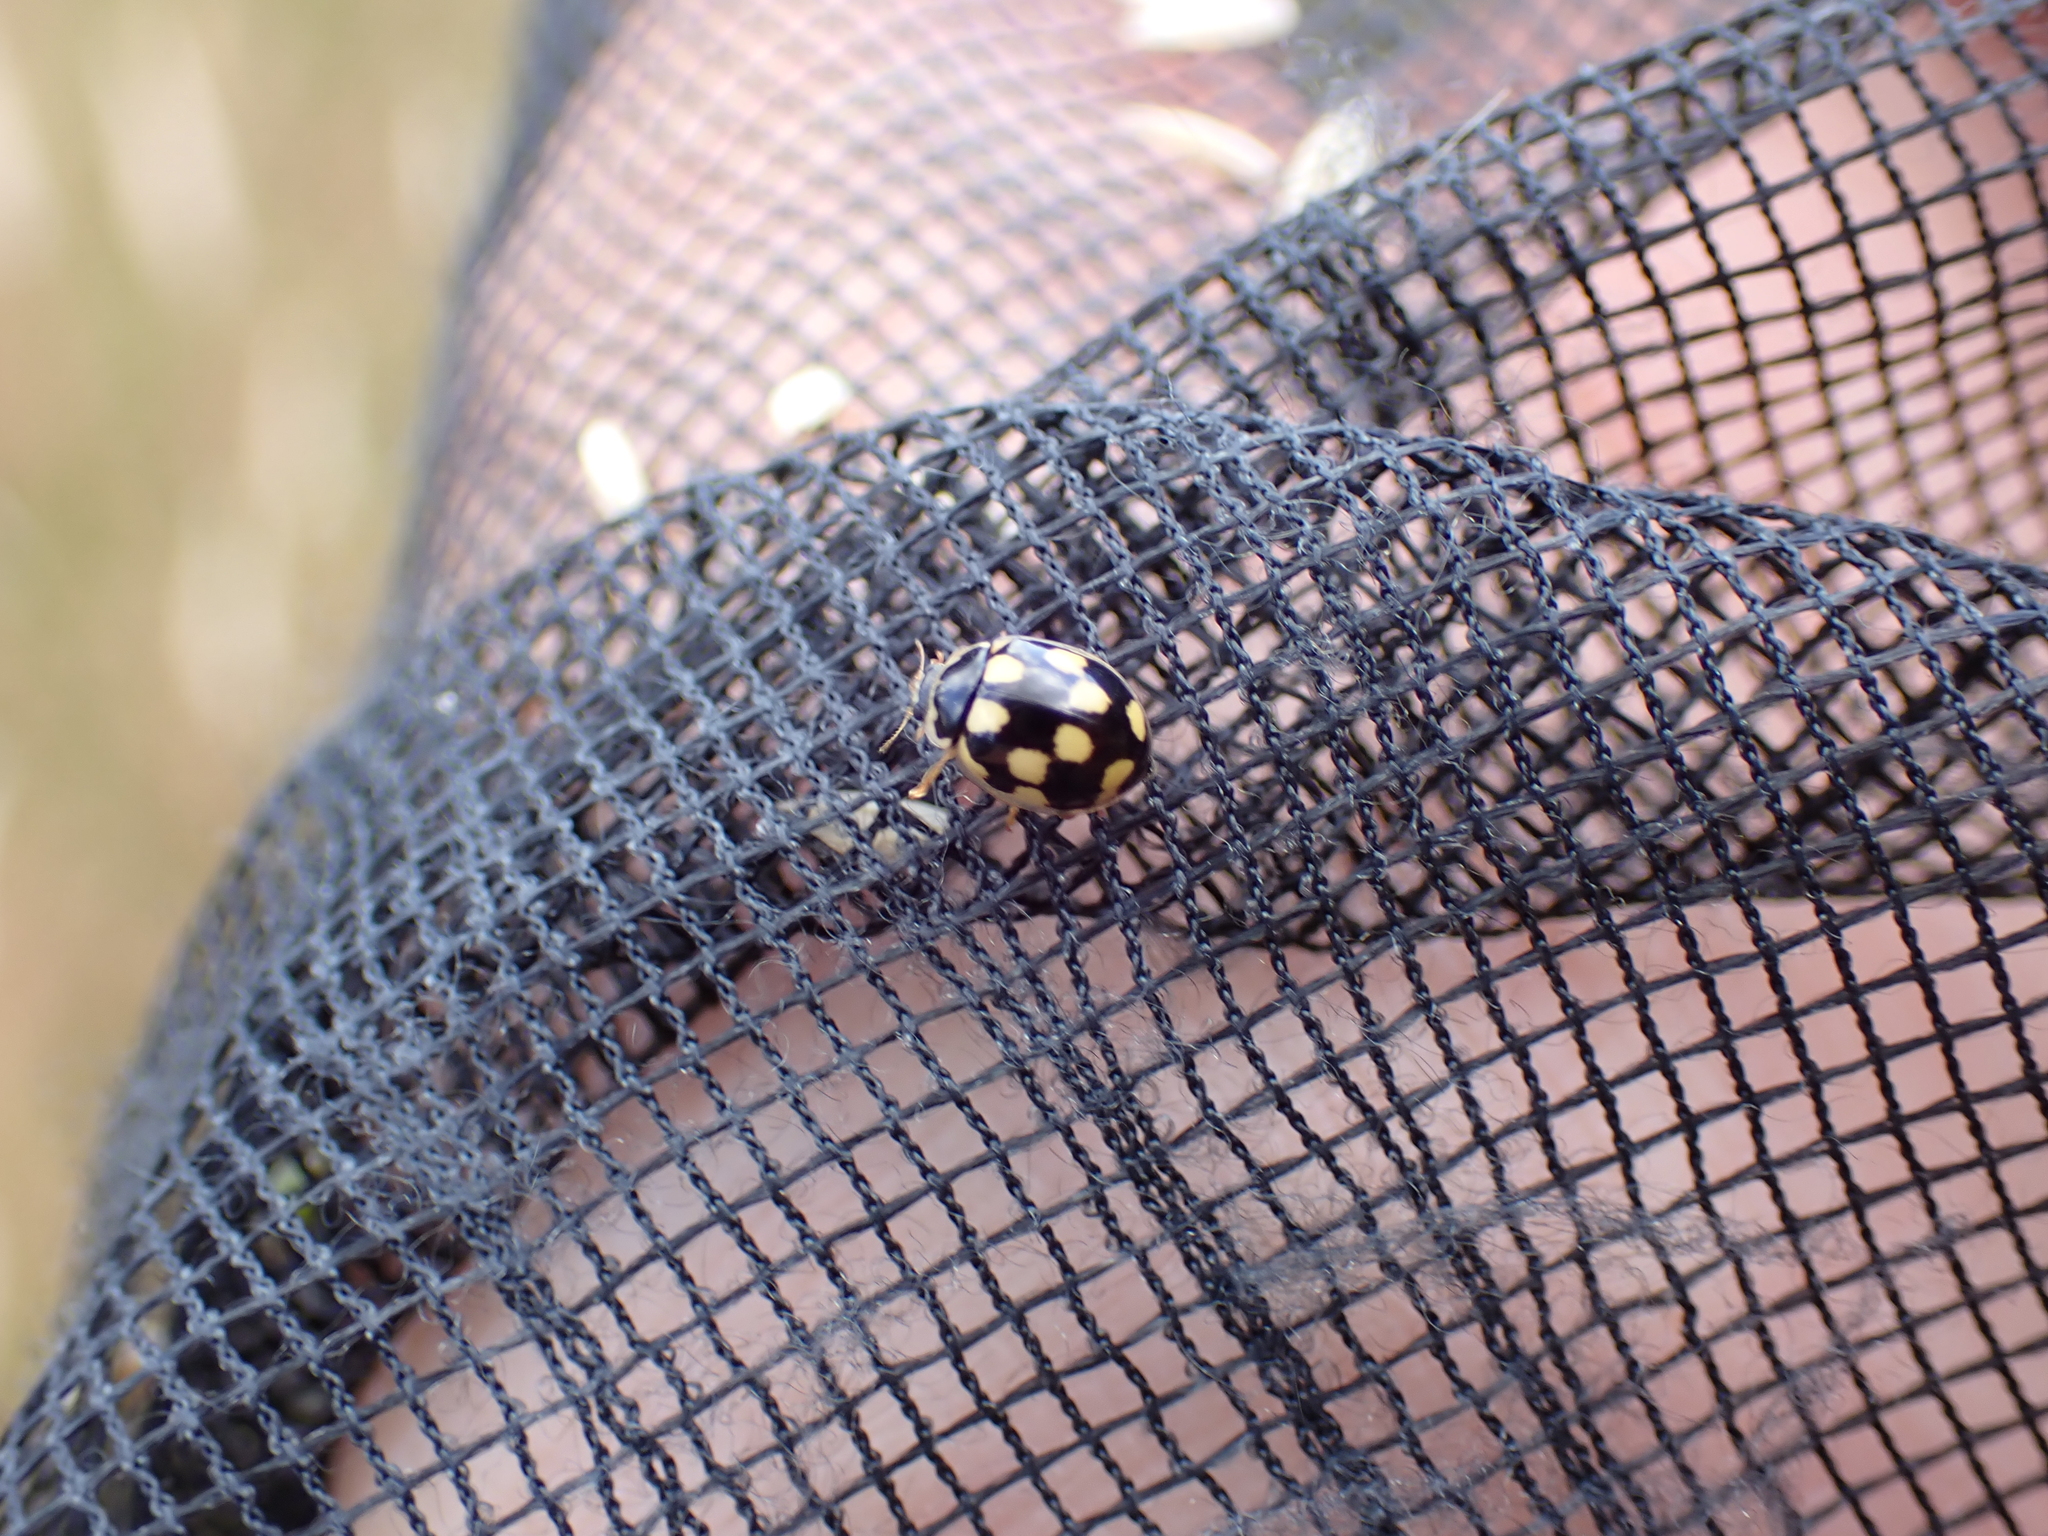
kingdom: Animalia
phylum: Arthropoda
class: Insecta
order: Coleoptera
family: Coccinellidae
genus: Propylaea
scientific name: Propylaea quatuordecimpunctata
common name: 14-spotted ladybird beetle
